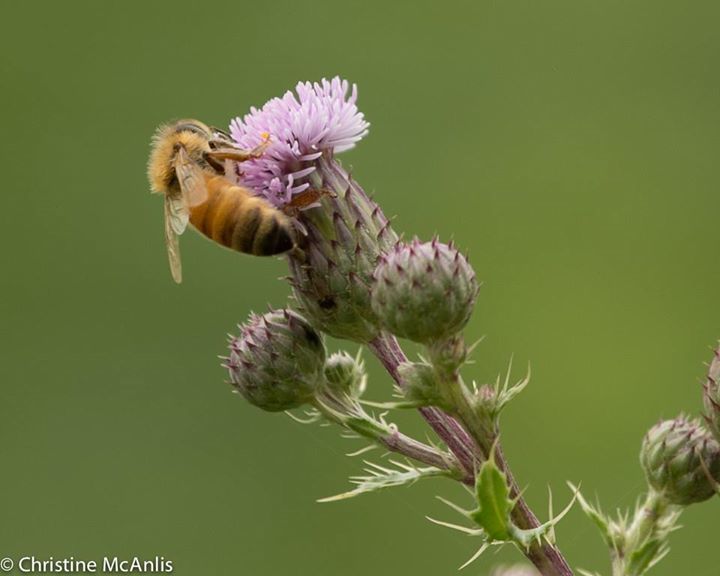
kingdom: Animalia
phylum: Arthropoda
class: Insecta
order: Hymenoptera
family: Apidae
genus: Apis
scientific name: Apis mellifera
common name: Honey bee
